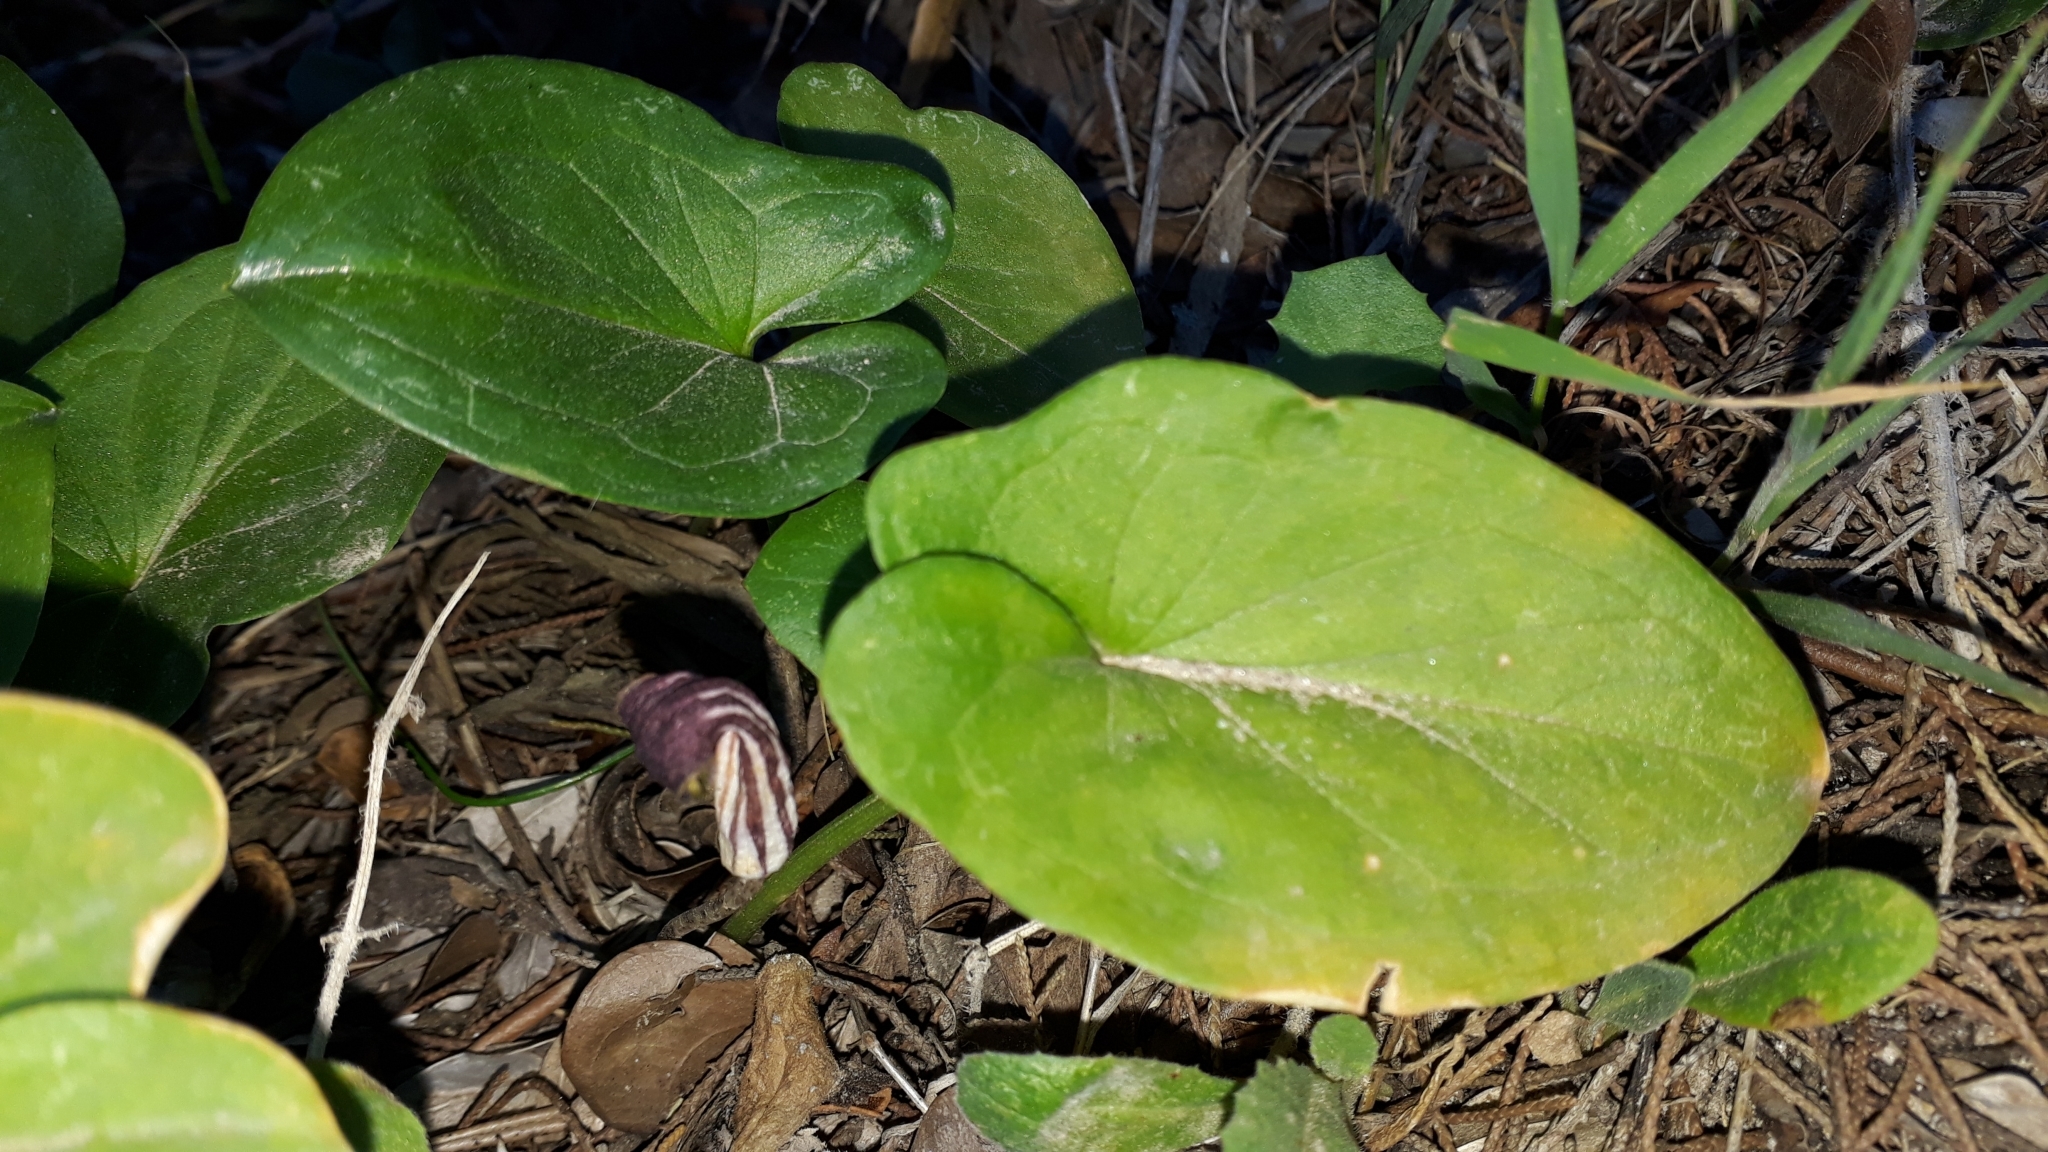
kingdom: Plantae
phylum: Tracheophyta
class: Liliopsida
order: Alismatales
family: Araceae
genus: Arisarum
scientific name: Arisarum vulgare
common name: Common arisarum
